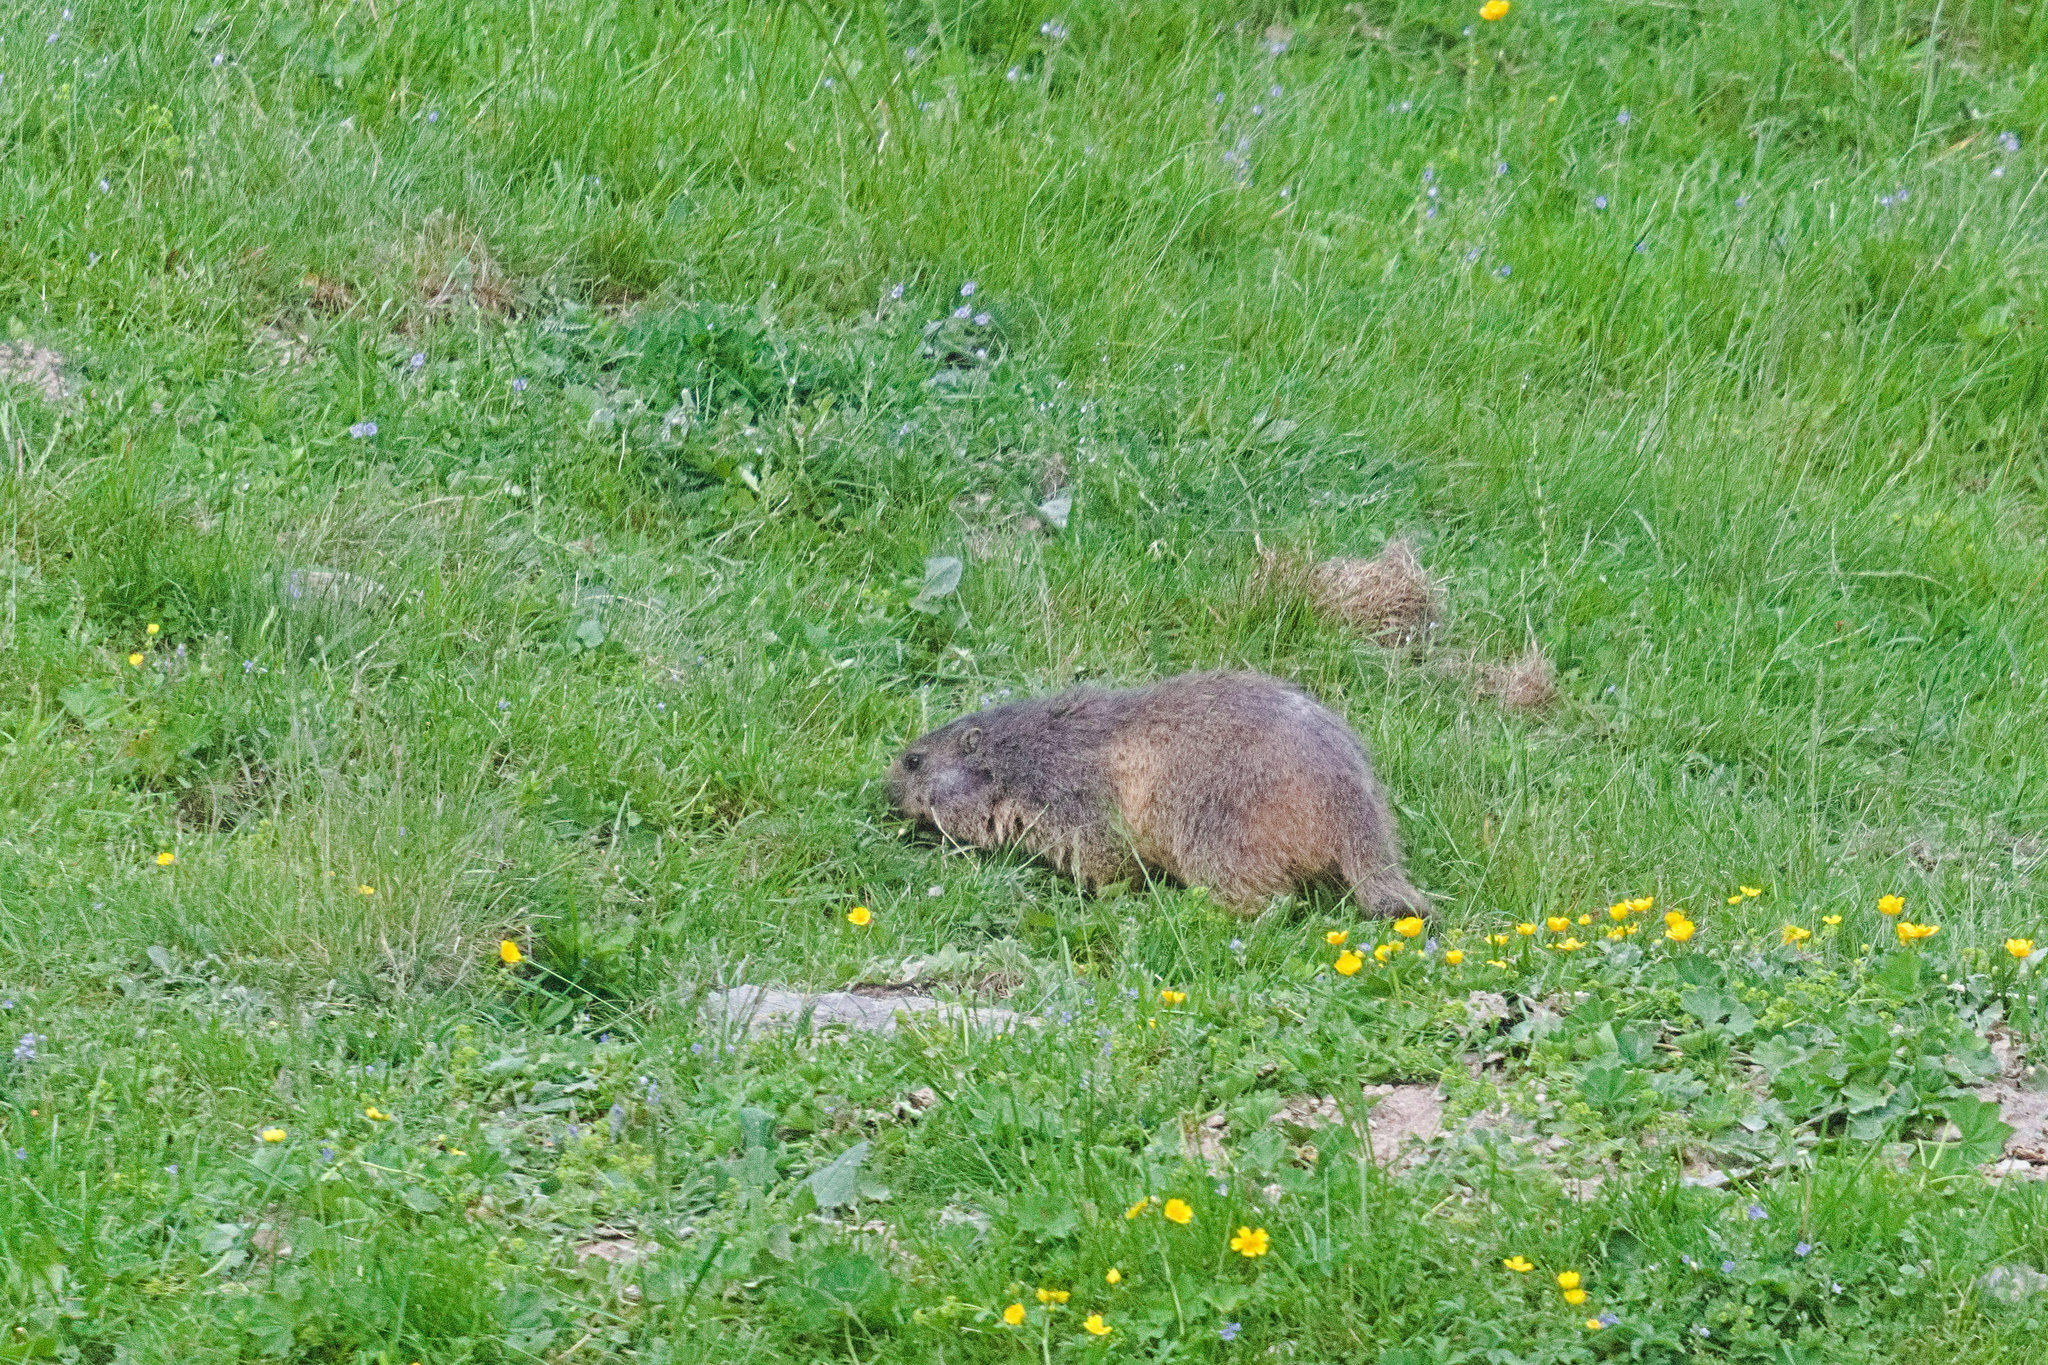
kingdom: Animalia
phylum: Chordata
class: Mammalia
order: Rodentia
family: Sciuridae
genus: Marmota
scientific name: Marmota marmota
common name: Alpine marmot
